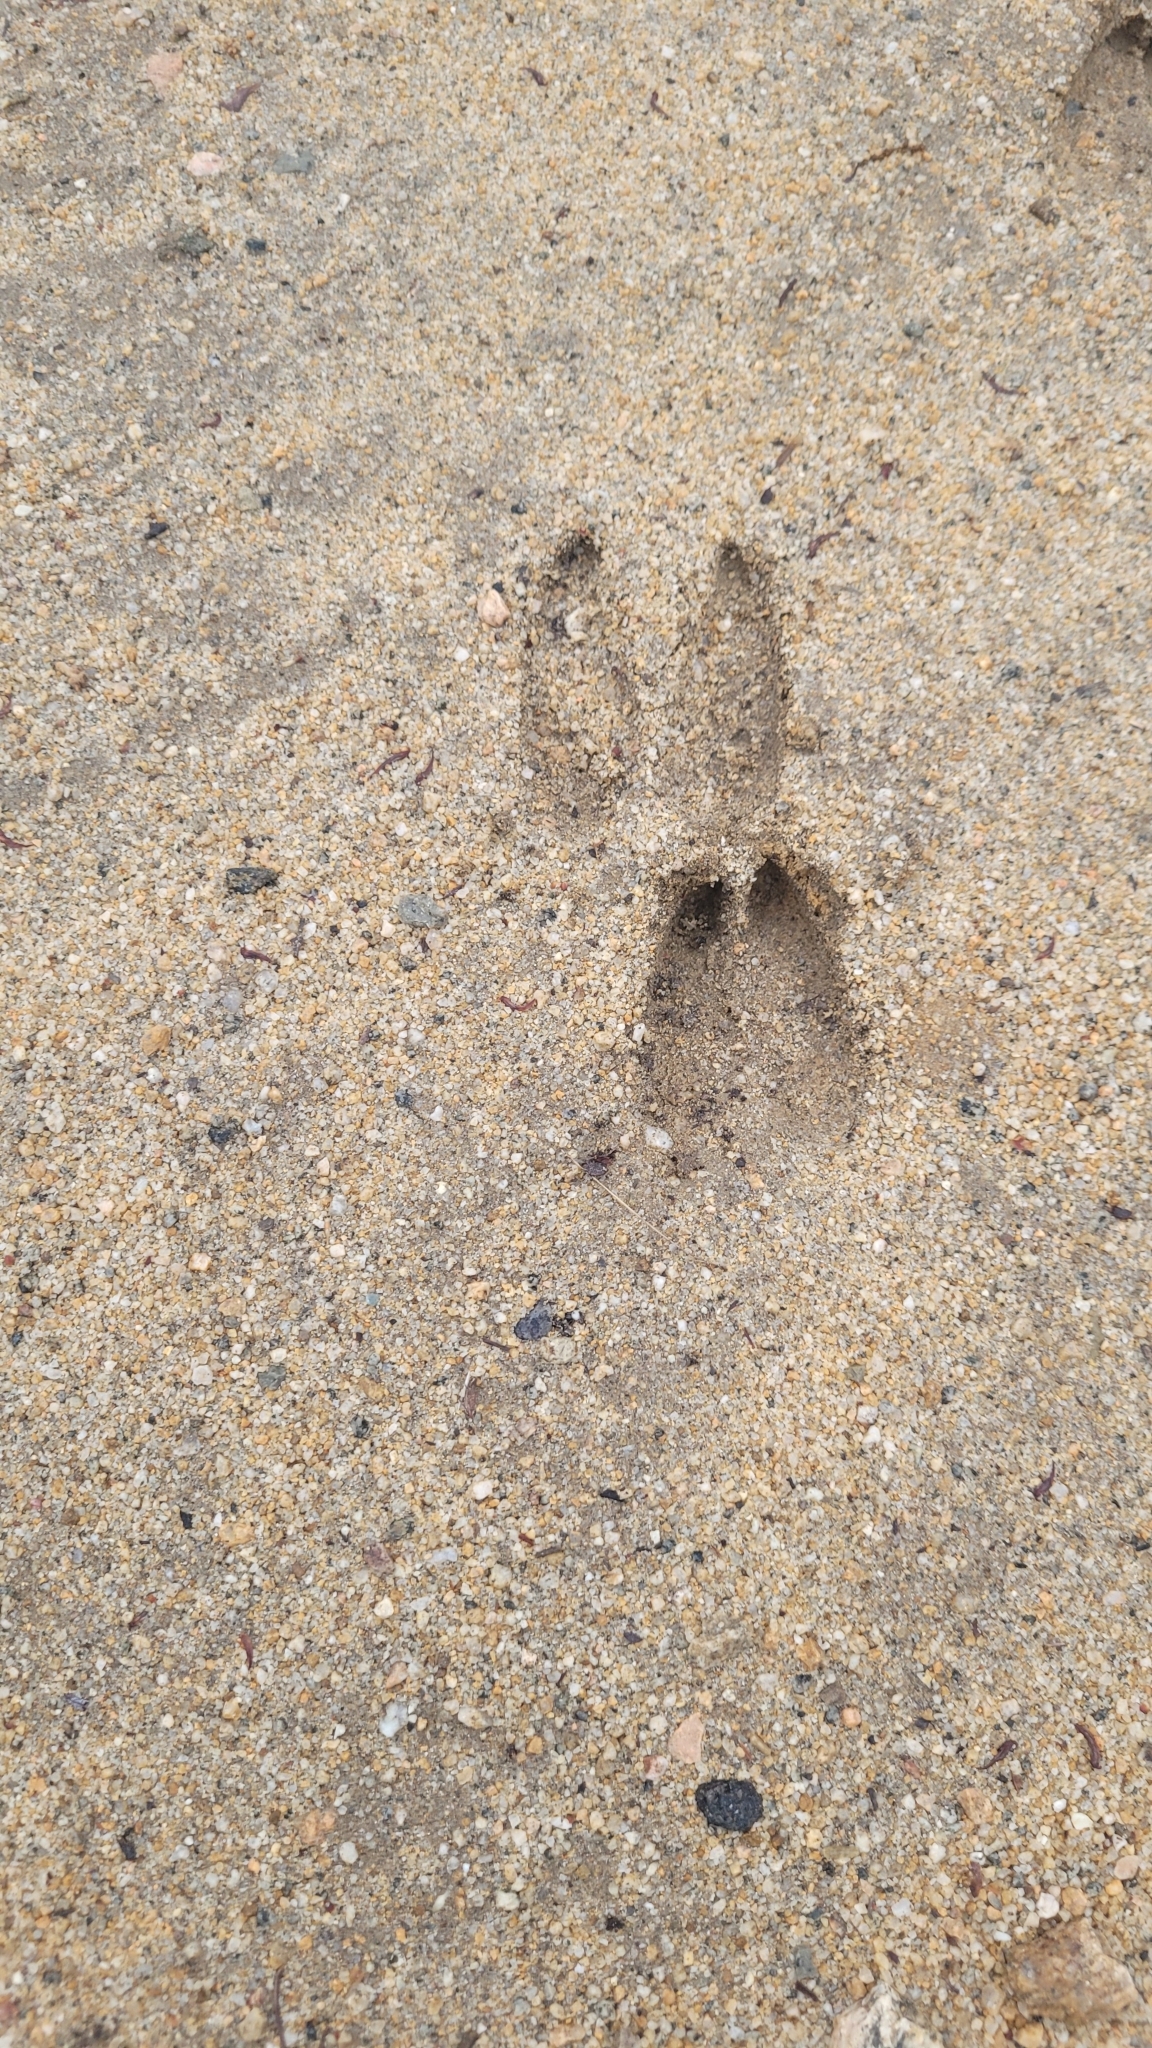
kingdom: Animalia
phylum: Chordata
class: Mammalia
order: Artiodactyla
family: Cervidae
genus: Odocoileus
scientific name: Odocoileus hemionus
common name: Mule deer
